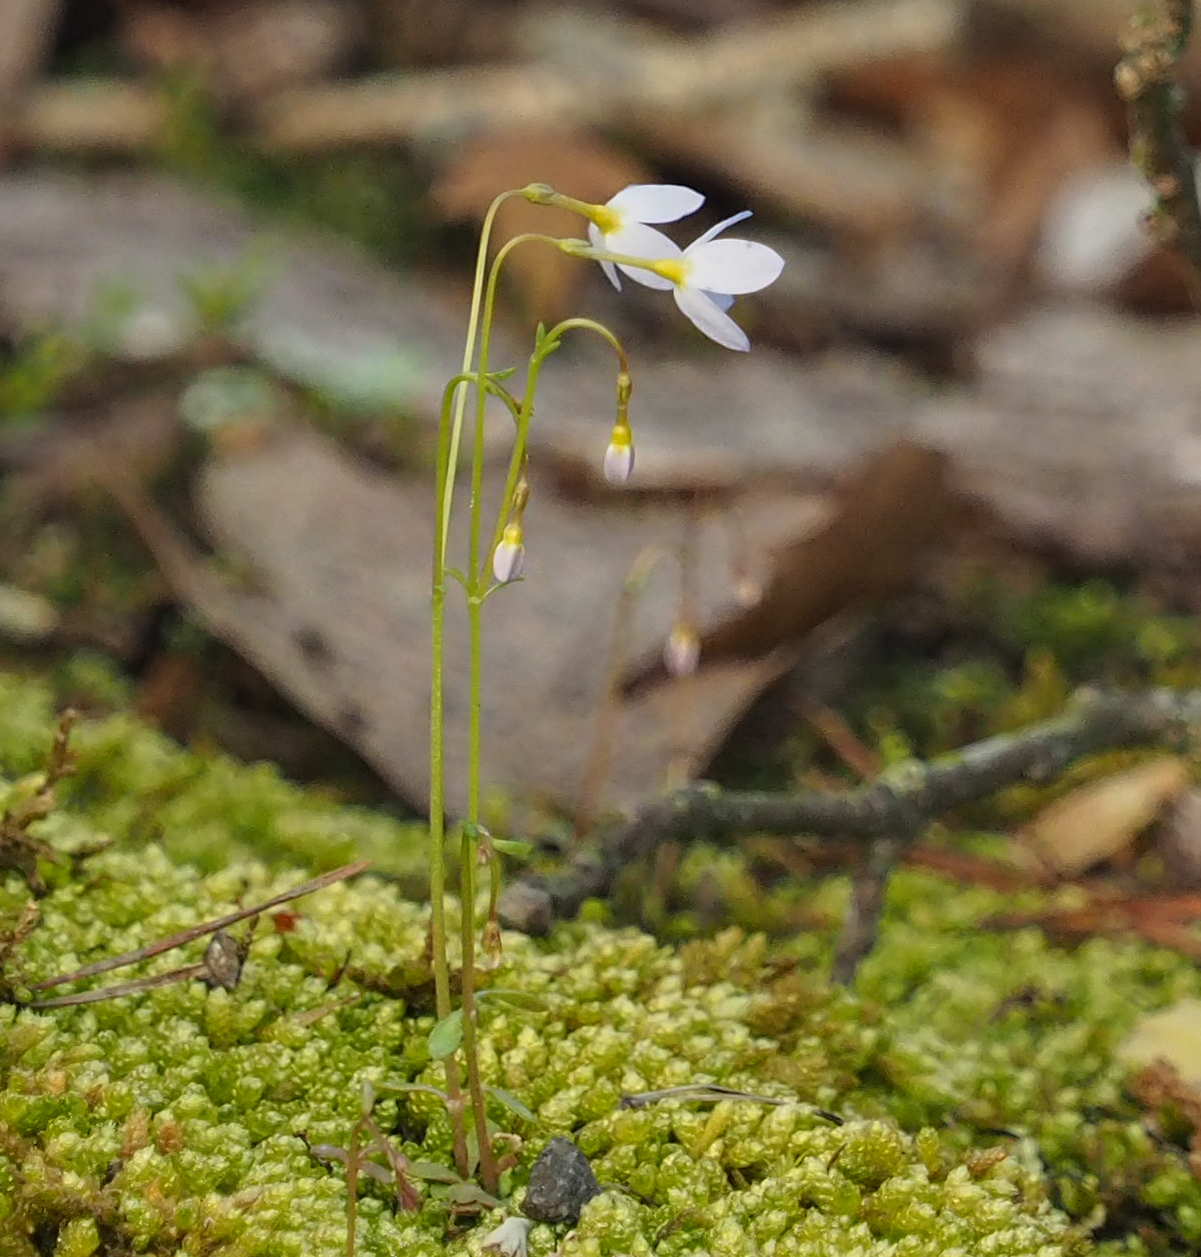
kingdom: Plantae
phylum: Tracheophyta
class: Magnoliopsida
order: Gentianales
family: Rubiaceae
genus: Houstonia
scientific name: Houstonia caerulea
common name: Bluets
